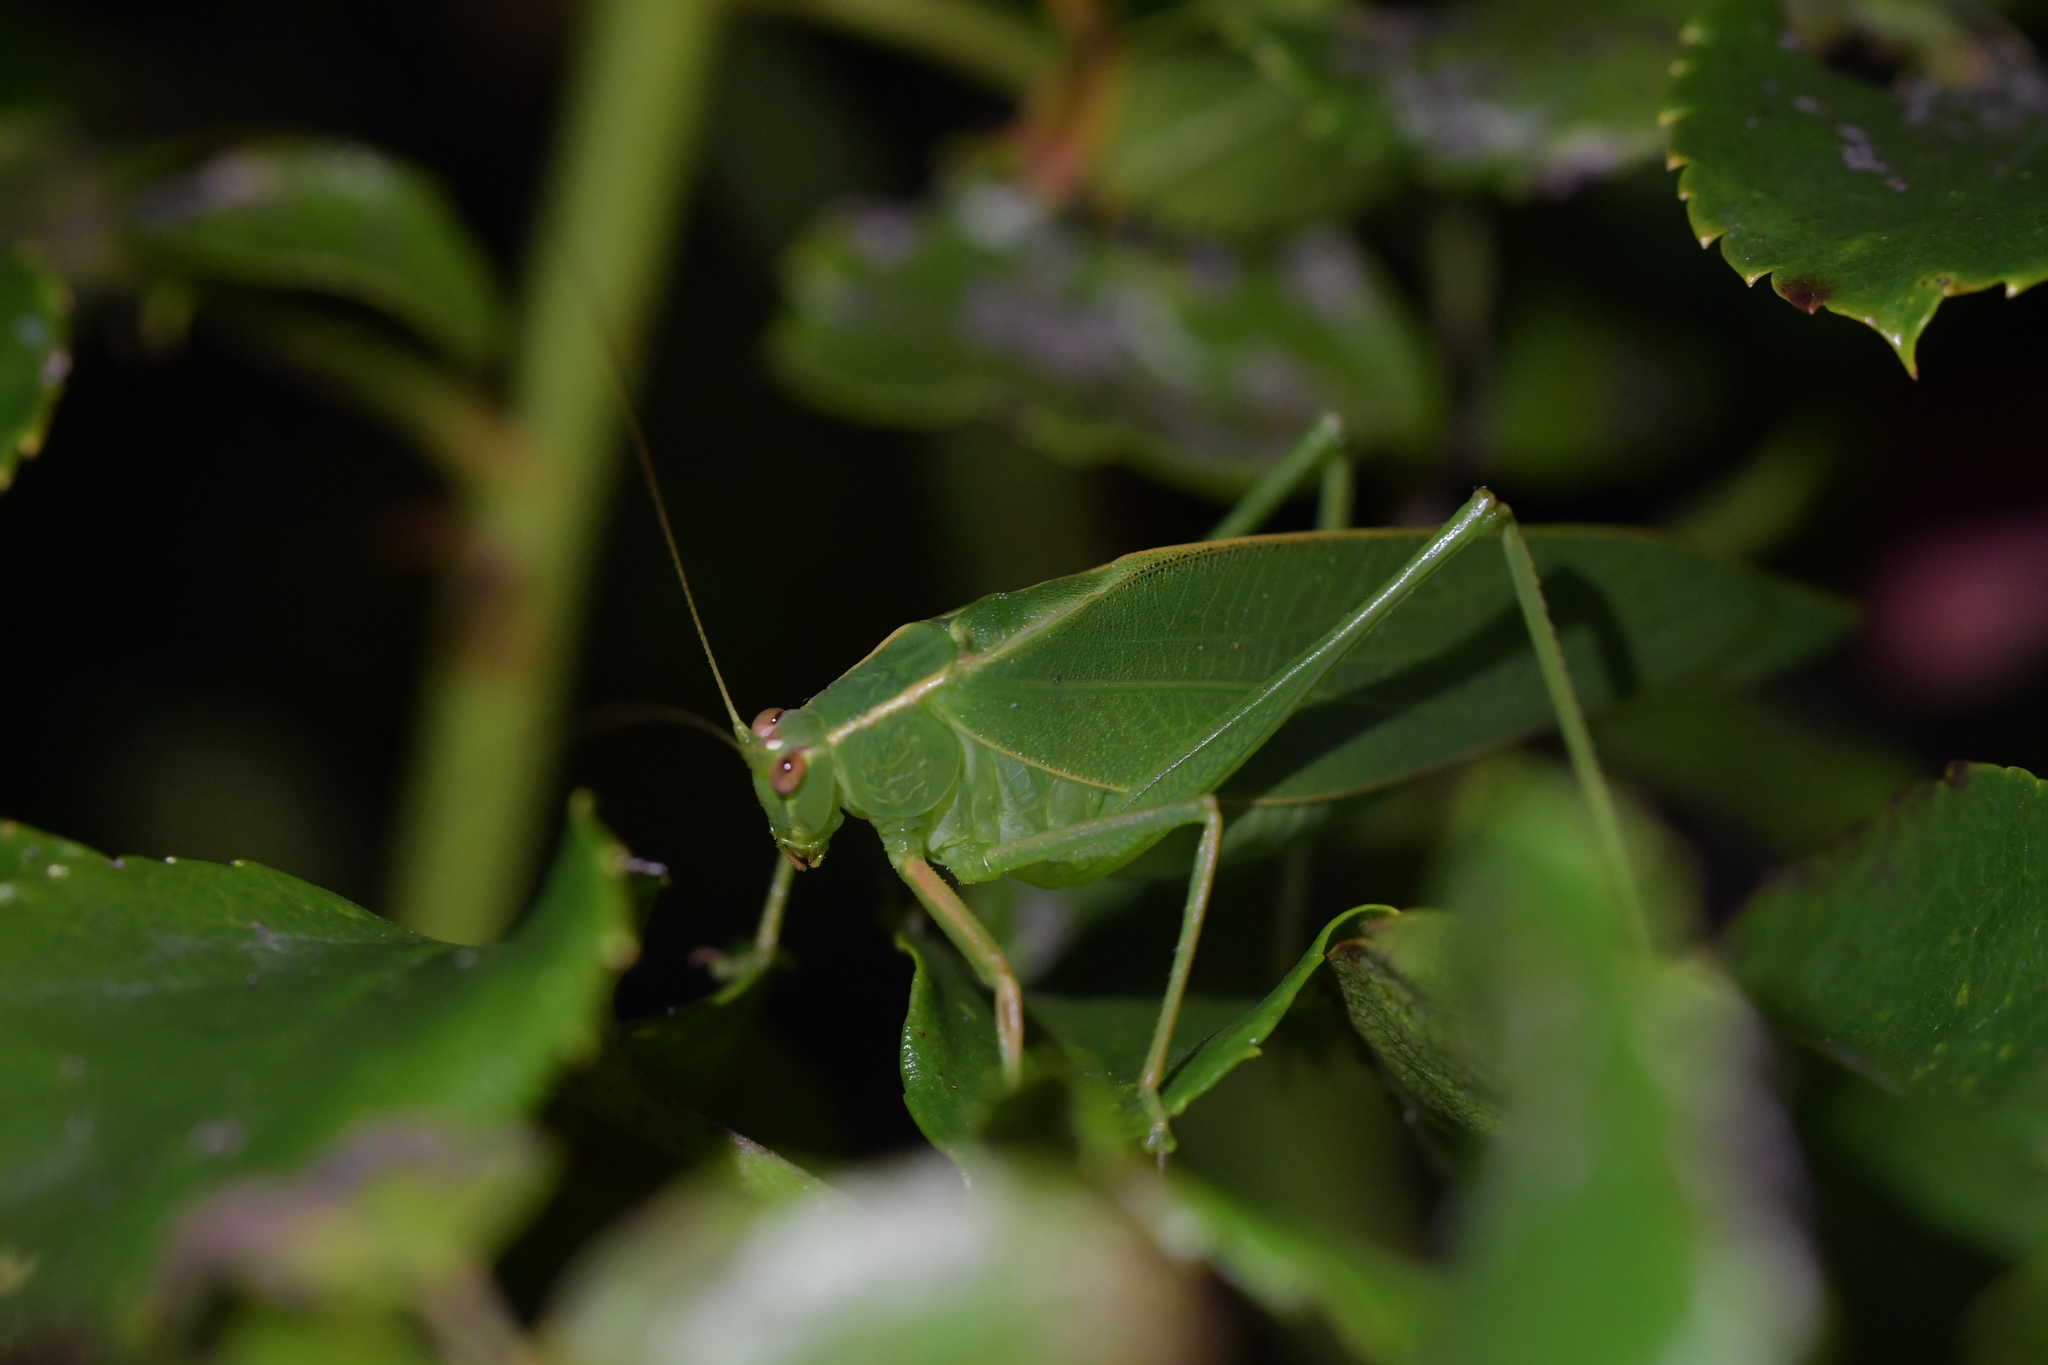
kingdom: Animalia
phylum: Arthropoda
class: Insecta
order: Orthoptera
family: Tettigoniidae
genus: Caedicia
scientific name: Caedicia simplex
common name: Common garden katydid
